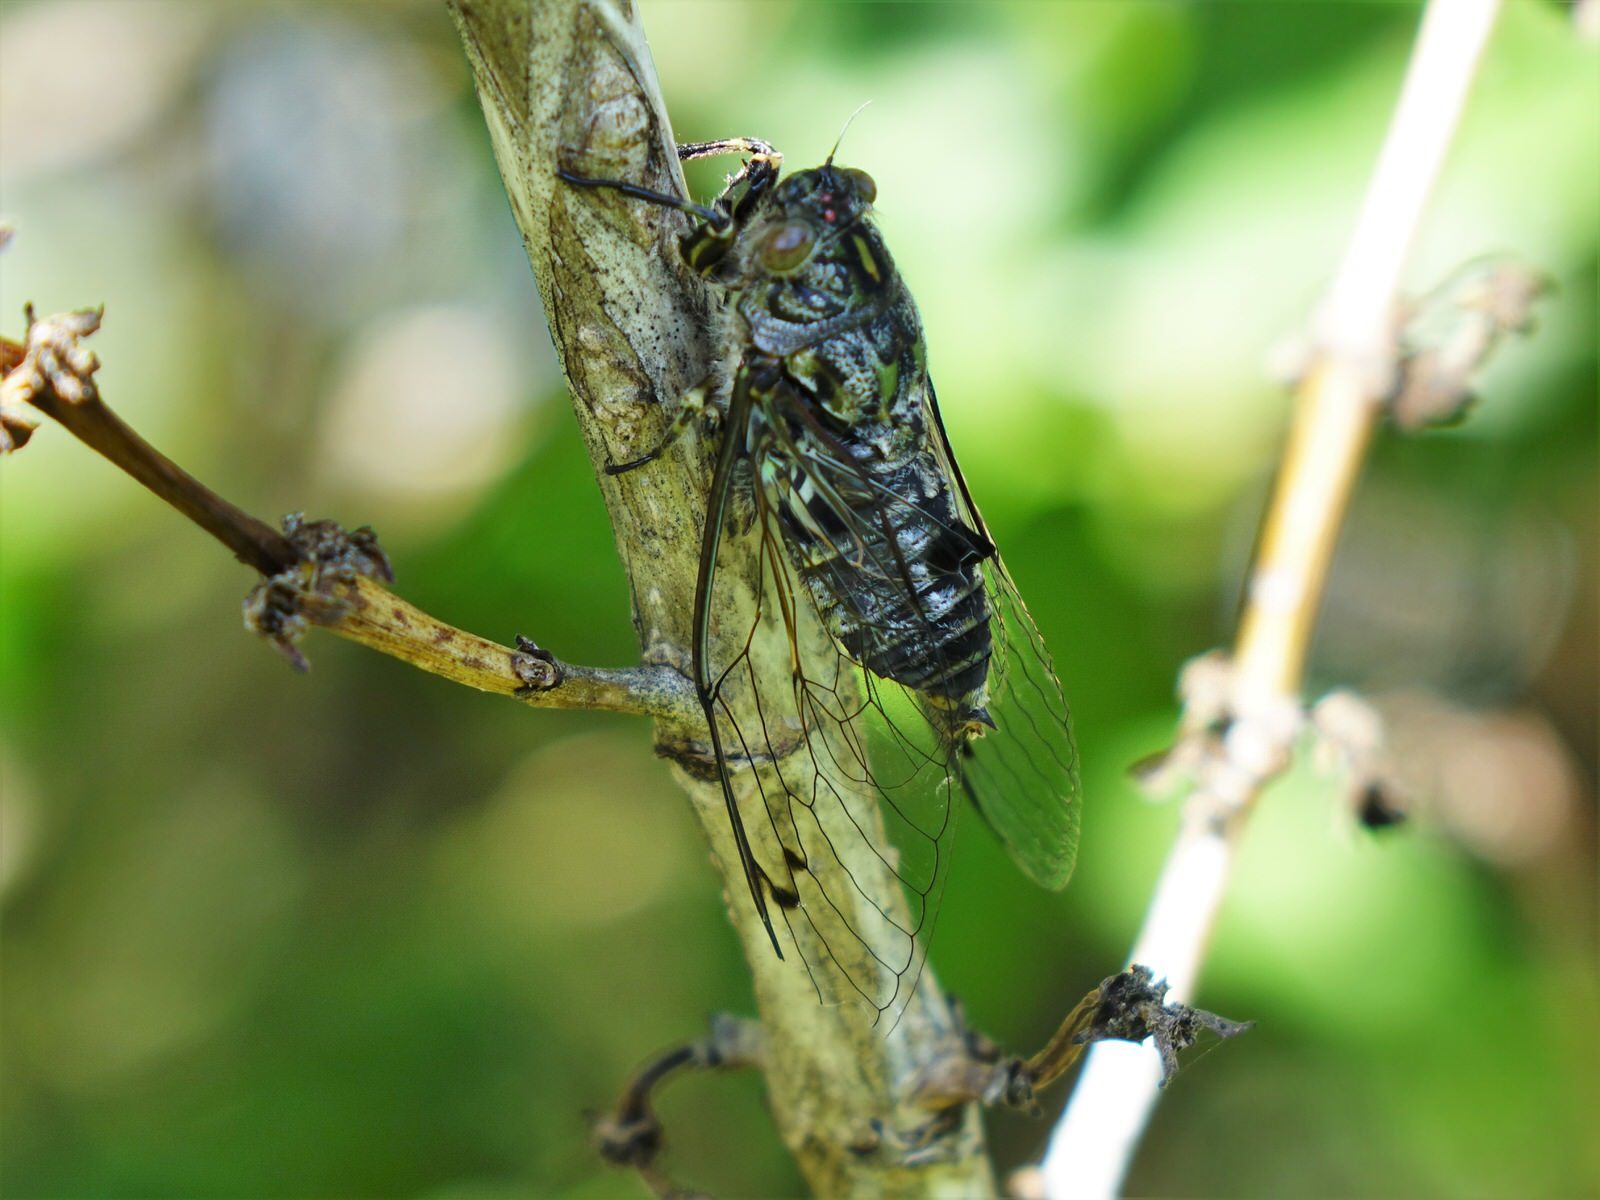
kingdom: Animalia
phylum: Arthropoda
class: Insecta
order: Hemiptera
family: Cicadidae
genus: Amphipsalta
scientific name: Amphipsalta zelandica
